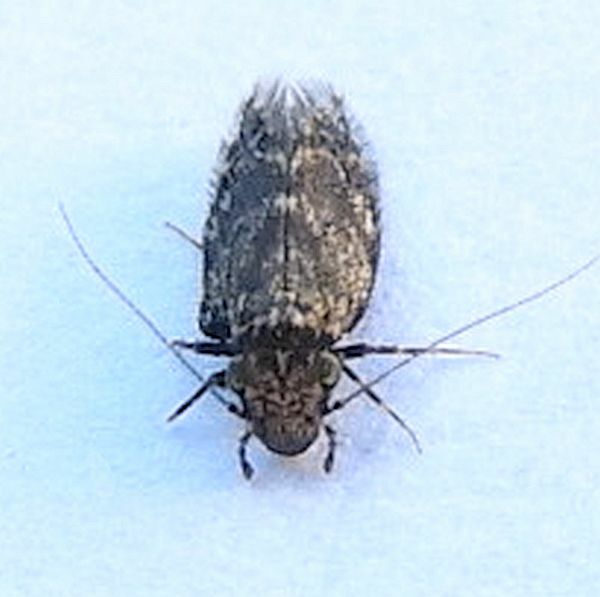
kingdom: Animalia
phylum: Arthropoda
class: Insecta
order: Psocodea
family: Lepidopsocidae
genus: Echmepteryx
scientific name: Echmepteryx hageni
